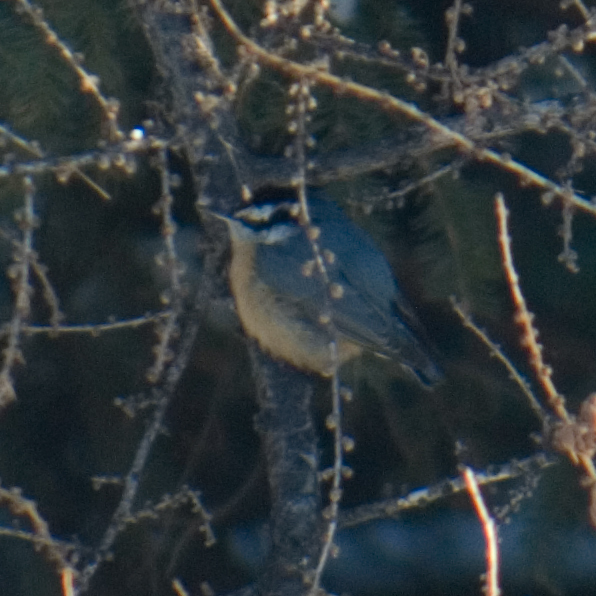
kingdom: Animalia
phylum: Chordata
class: Aves
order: Passeriformes
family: Sittidae
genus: Sitta
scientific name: Sitta canadensis
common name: Red-breasted nuthatch
